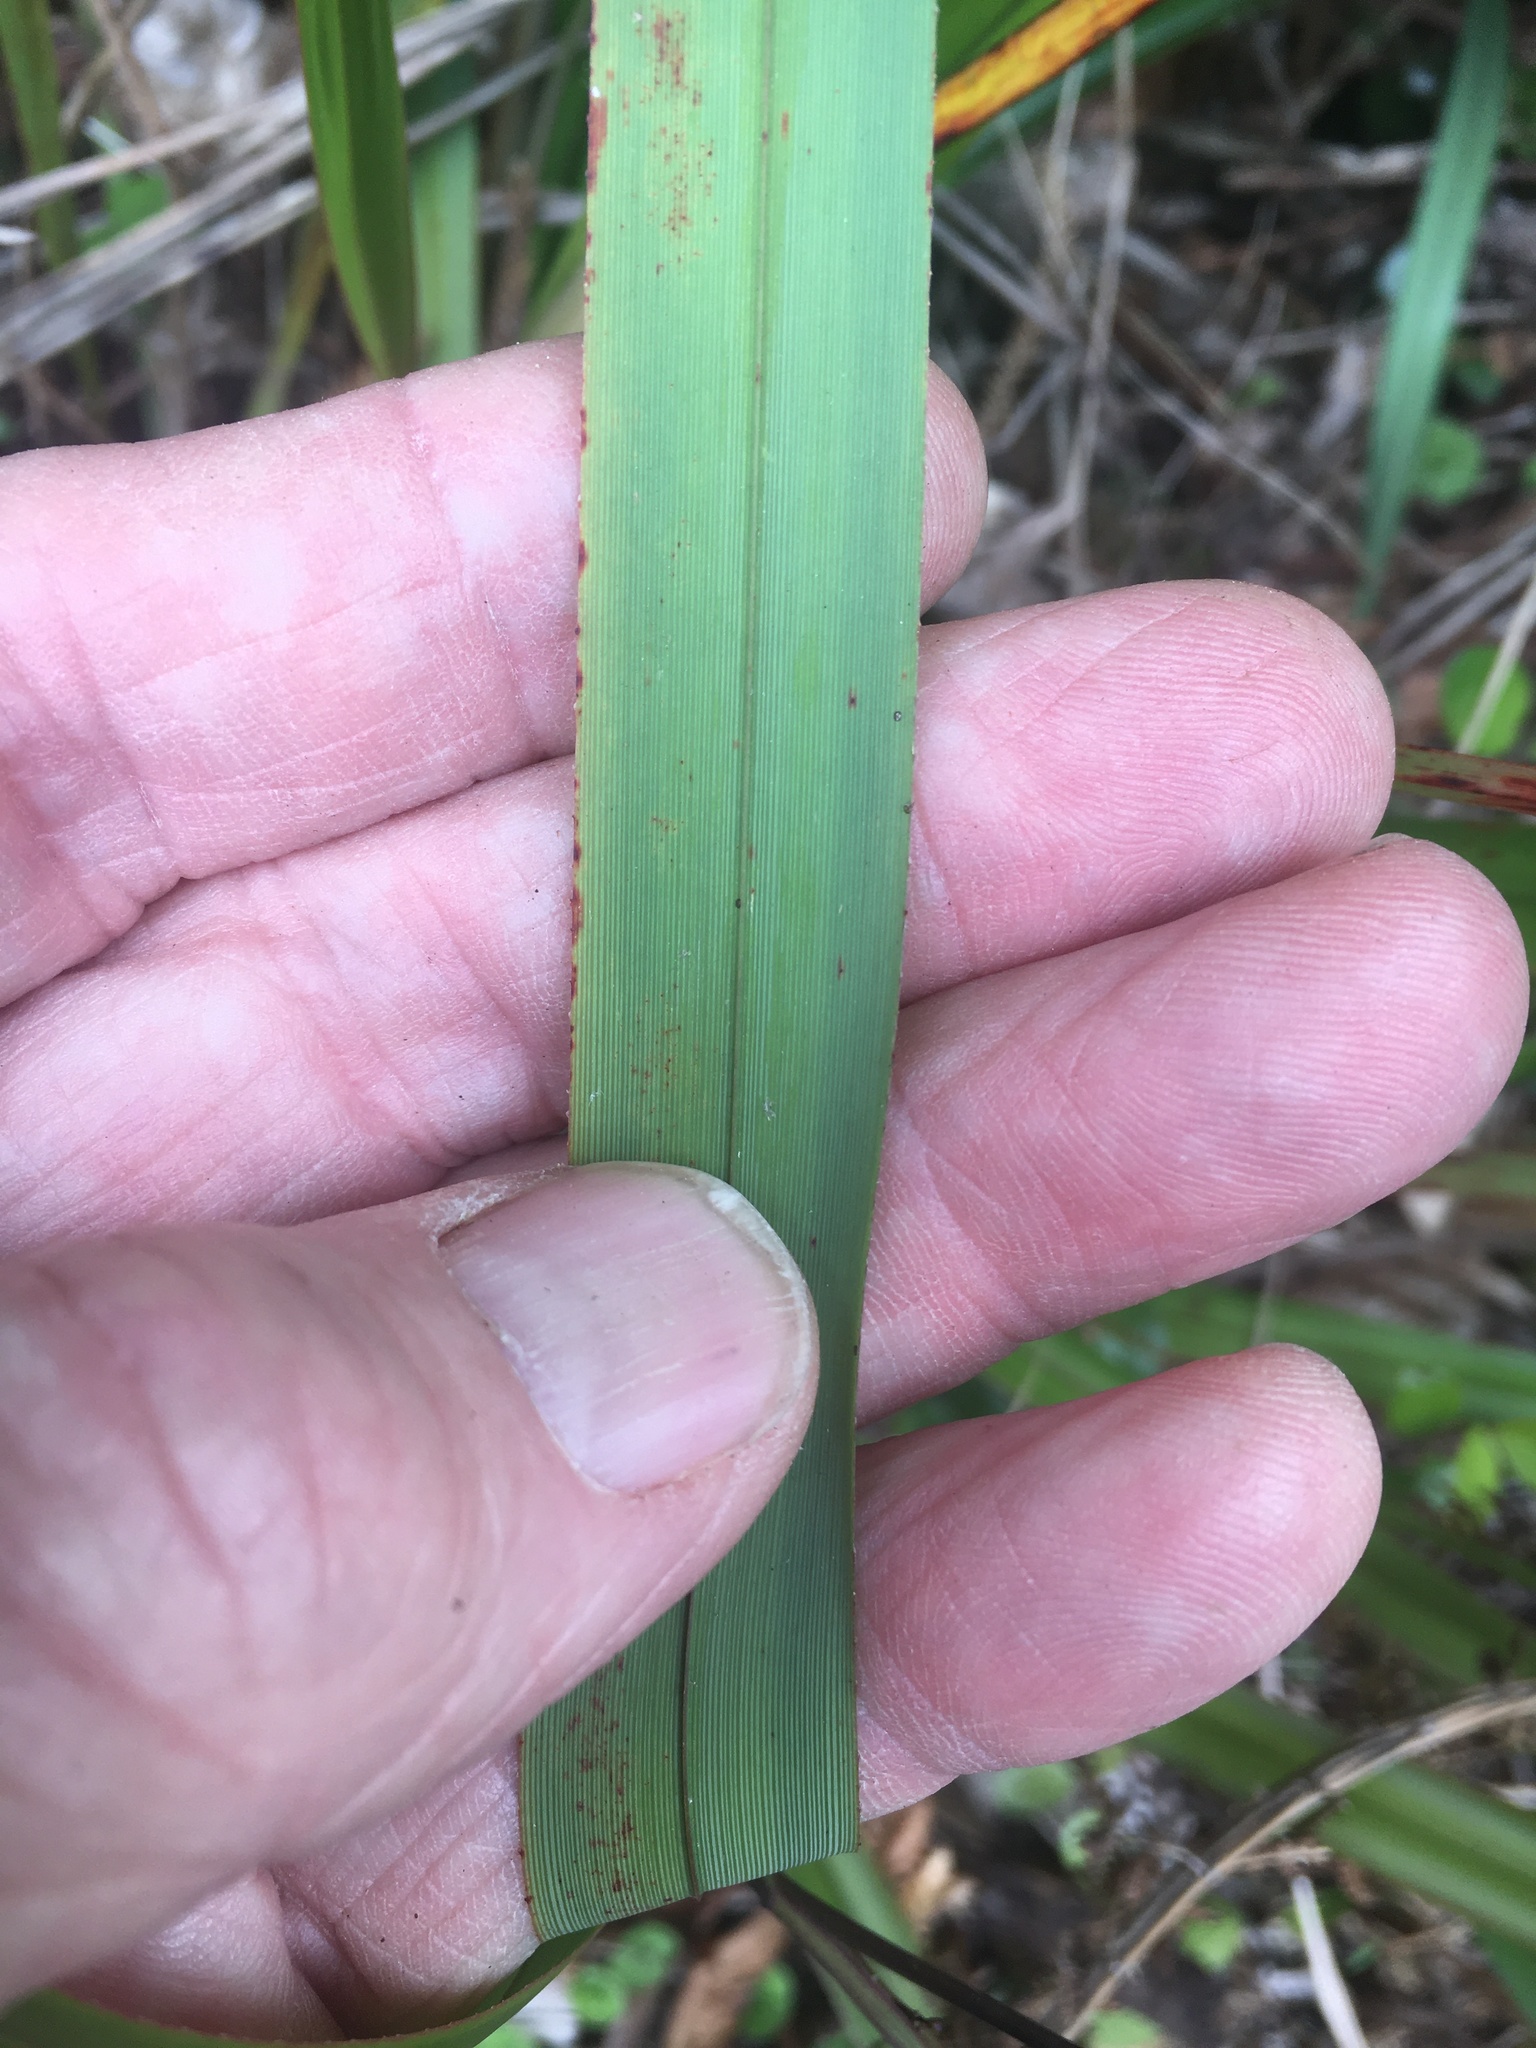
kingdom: Plantae
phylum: Tracheophyta
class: Liliopsida
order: Asparagales
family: Asphodelaceae
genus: Dianella
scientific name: Dianella nigra
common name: New zealand-blueberry
